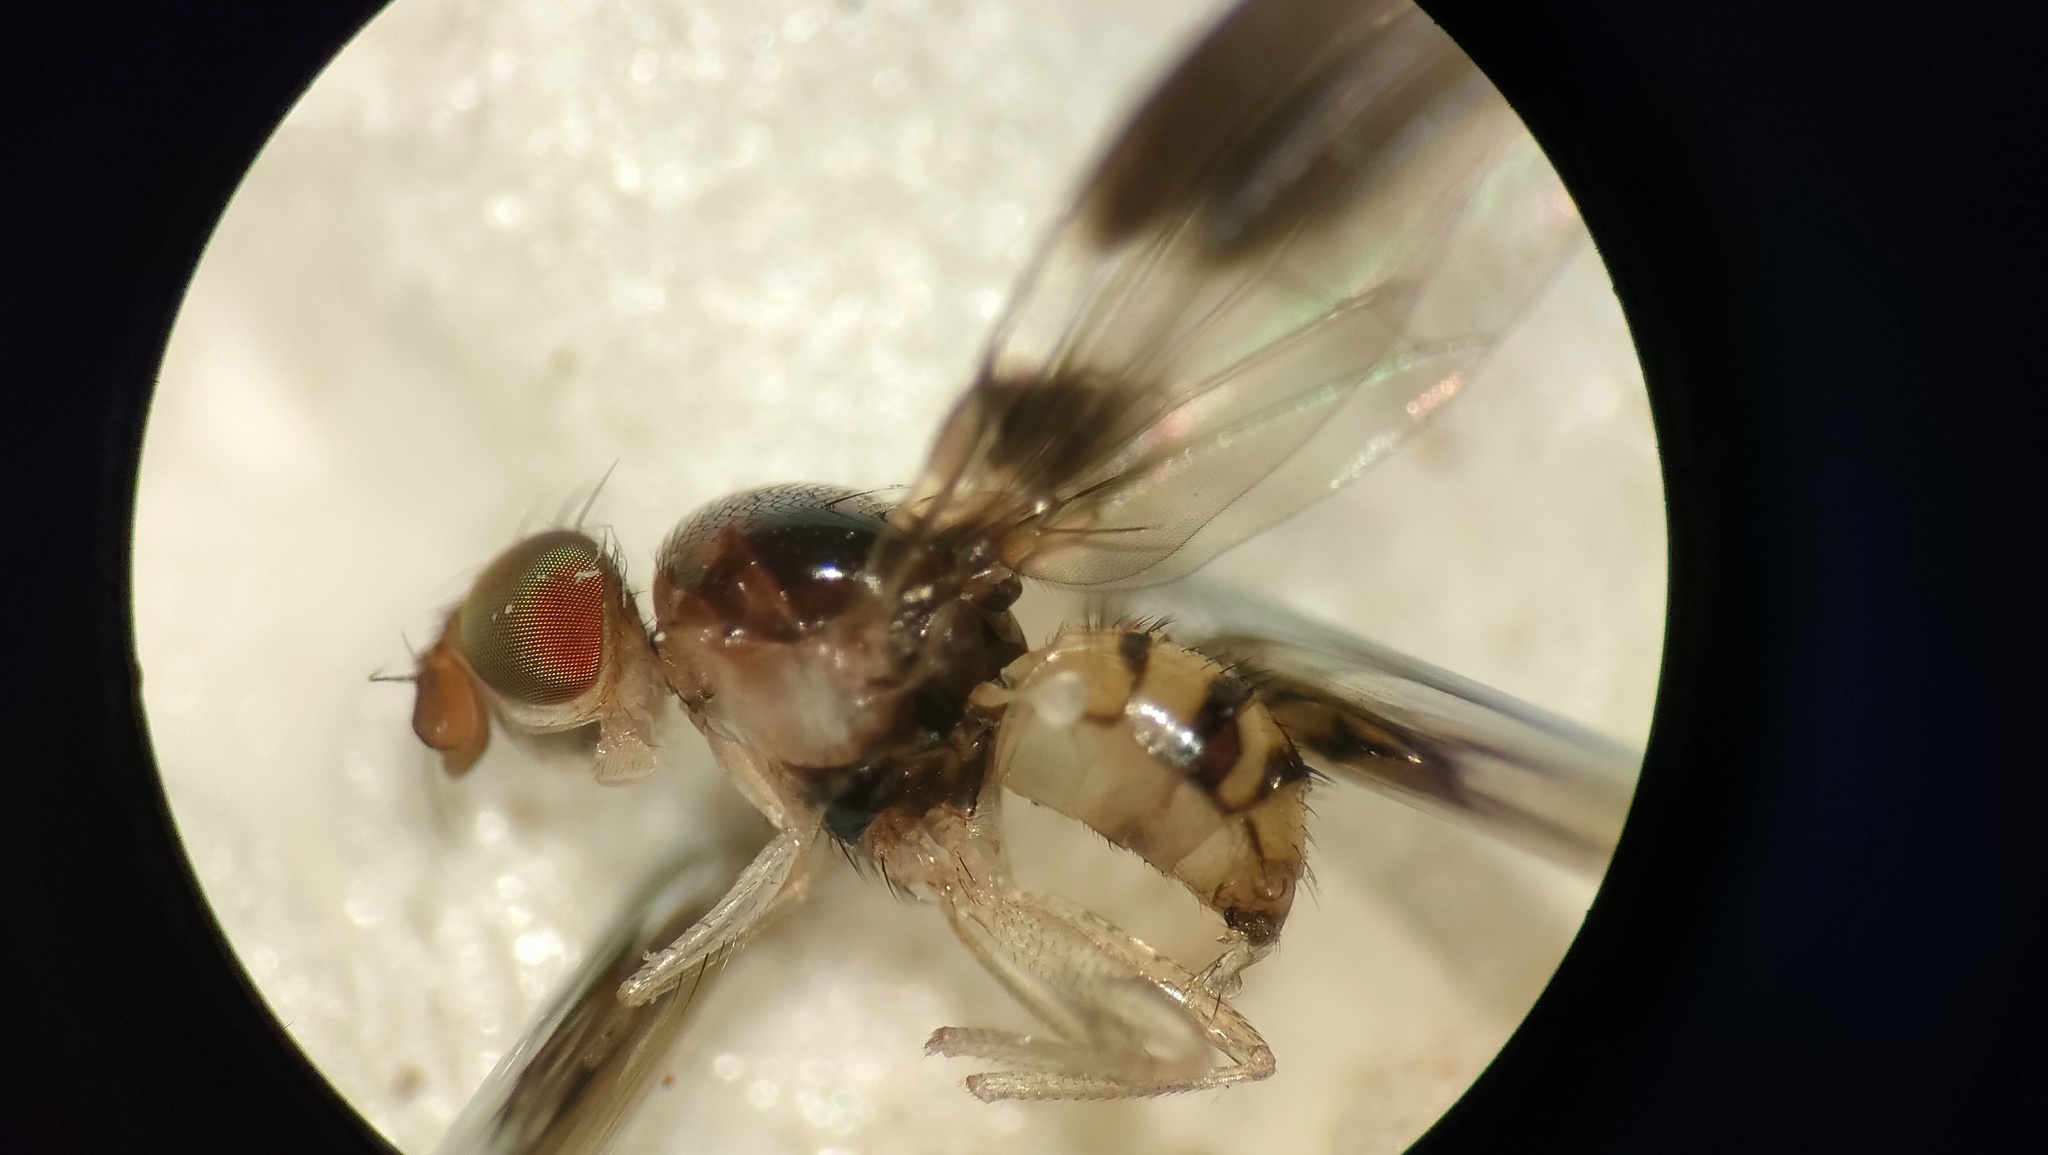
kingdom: Animalia
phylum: Arthropoda
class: Insecta
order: Diptera
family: Pallopteridae
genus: Neomaorina
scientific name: Neomaorina bimacula
